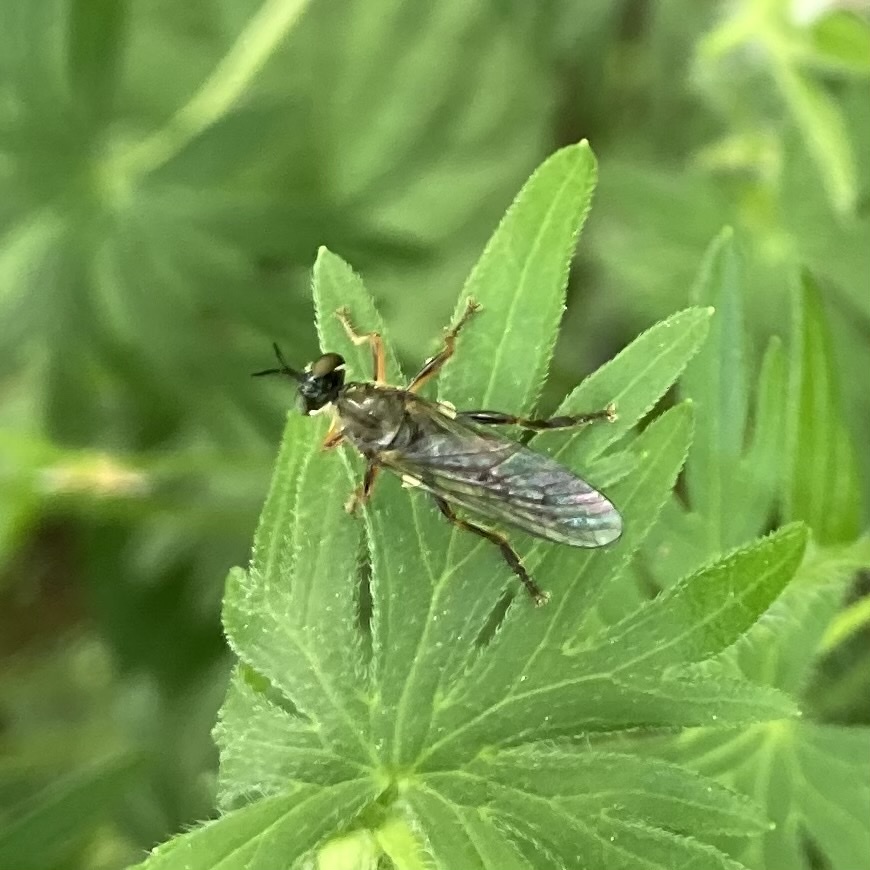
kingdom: Animalia
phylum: Arthropoda
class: Insecta
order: Diptera
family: Asilidae
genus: Dioctria
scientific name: Dioctria hyalipennis
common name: Stripe-legged robberfly
